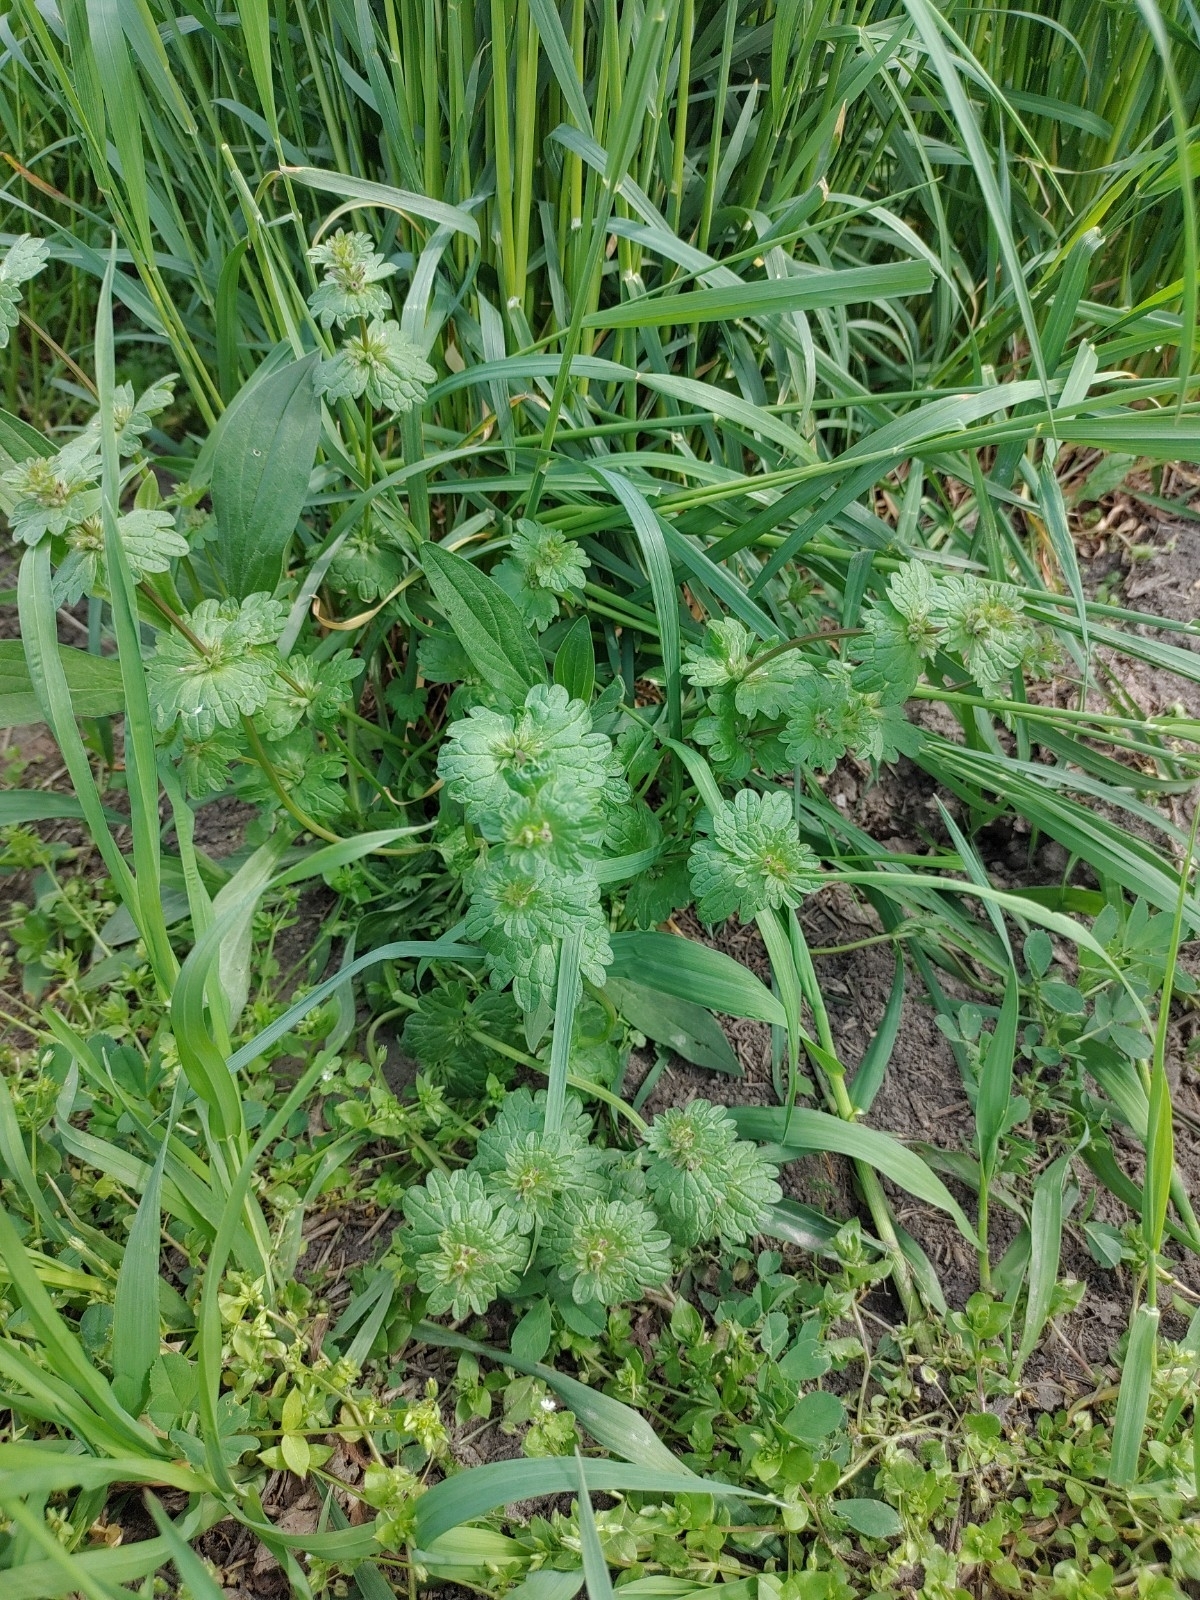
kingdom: Plantae
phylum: Tracheophyta
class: Magnoliopsida
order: Lamiales
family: Lamiaceae
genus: Lamium
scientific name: Lamium amplexicaule
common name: Henbit dead-nettle
